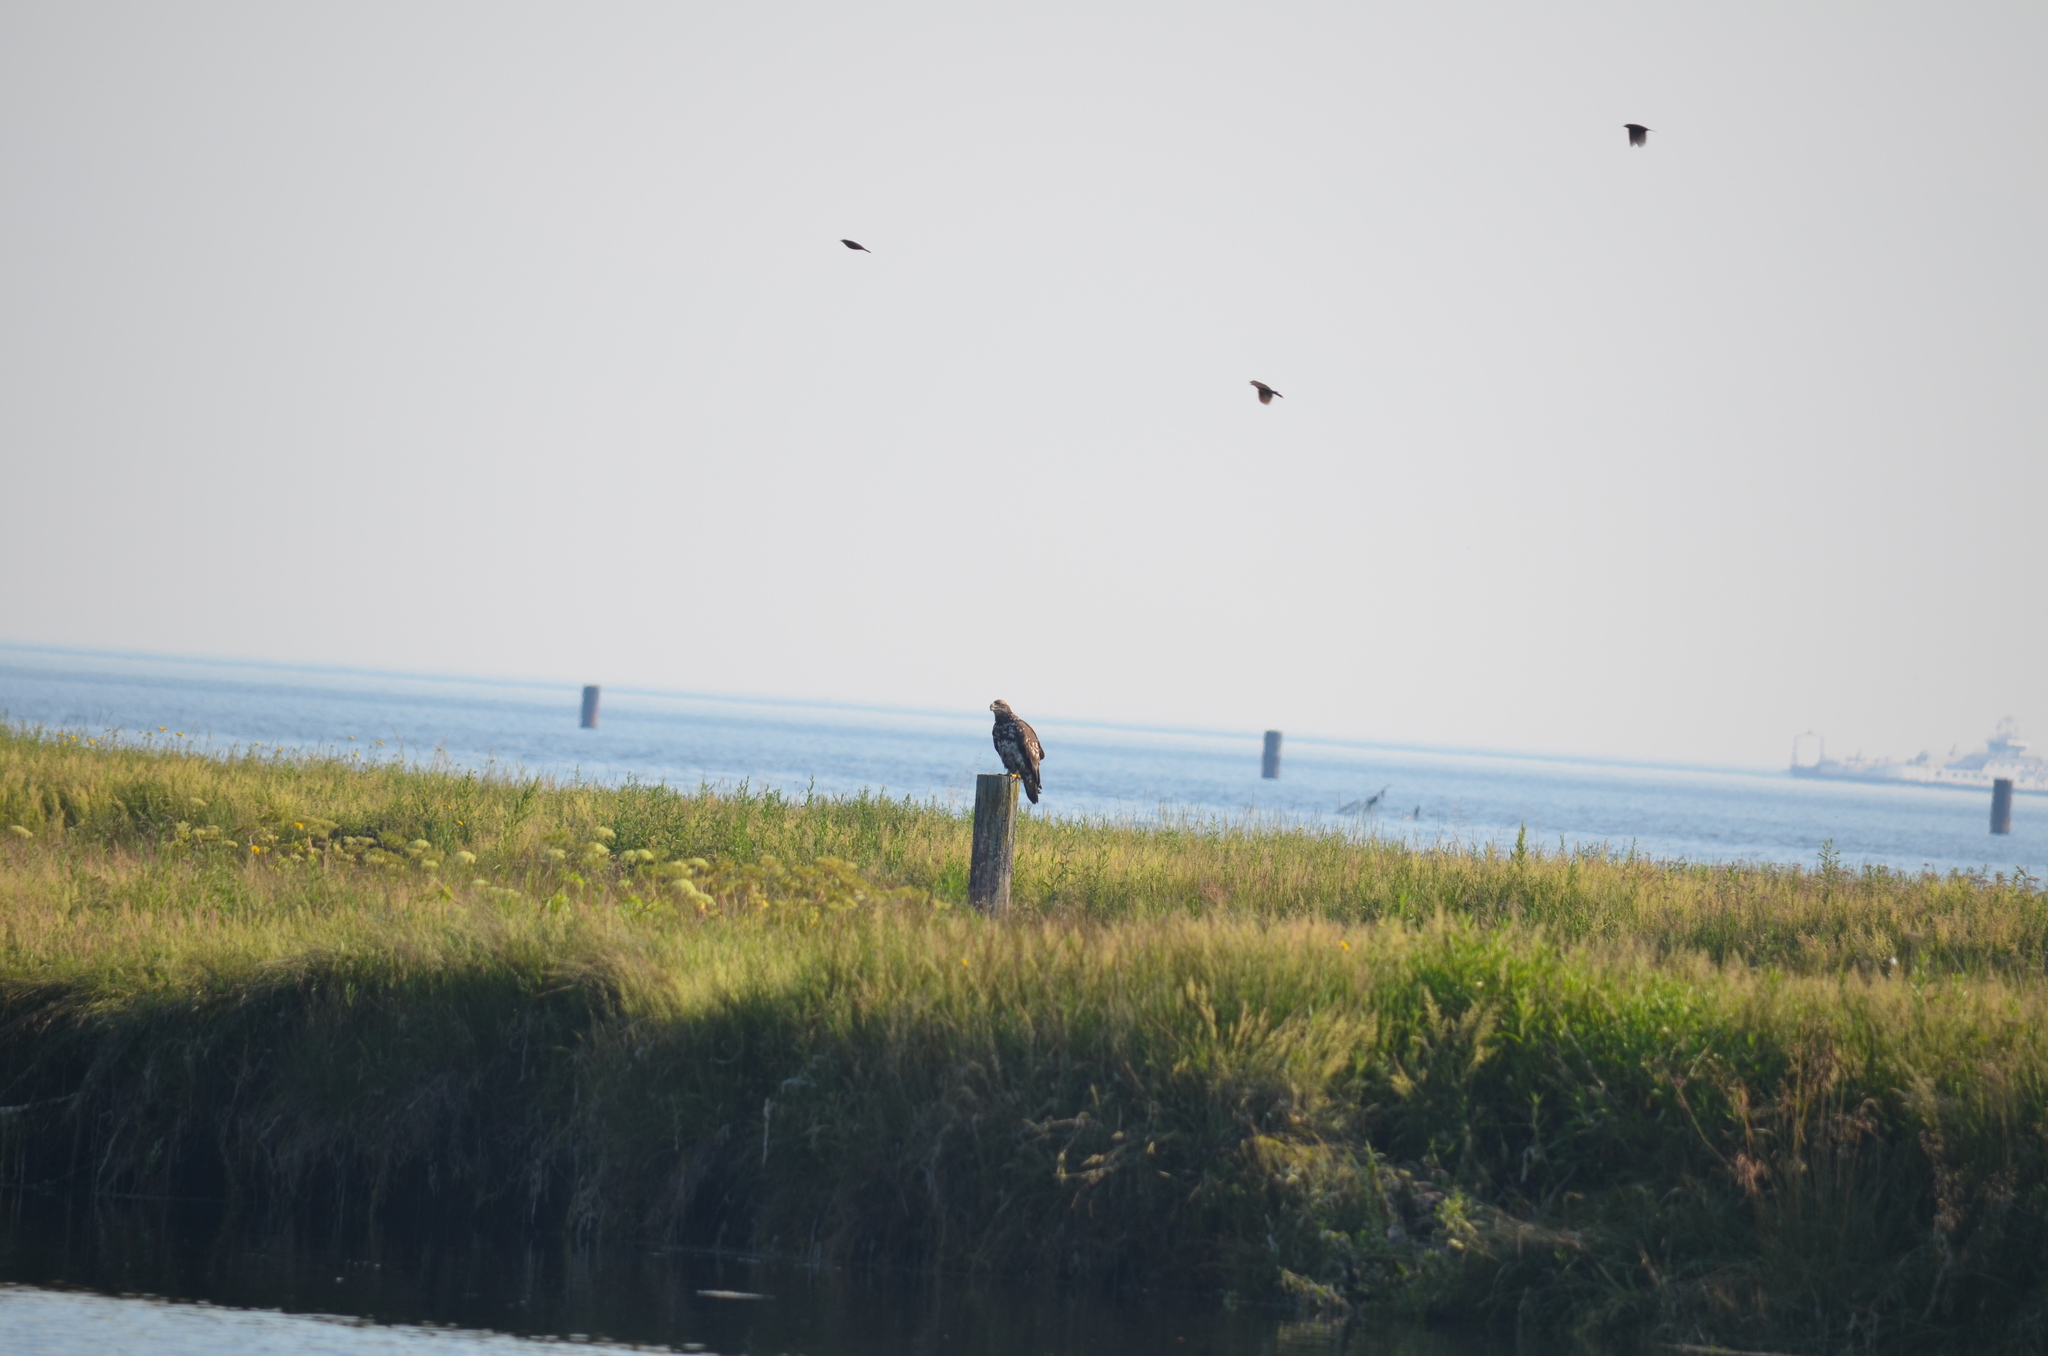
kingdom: Animalia
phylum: Chordata
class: Aves
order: Accipitriformes
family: Accipitridae
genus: Haliaeetus
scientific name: Haliaeetus leucocephalus
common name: Bald eagle
